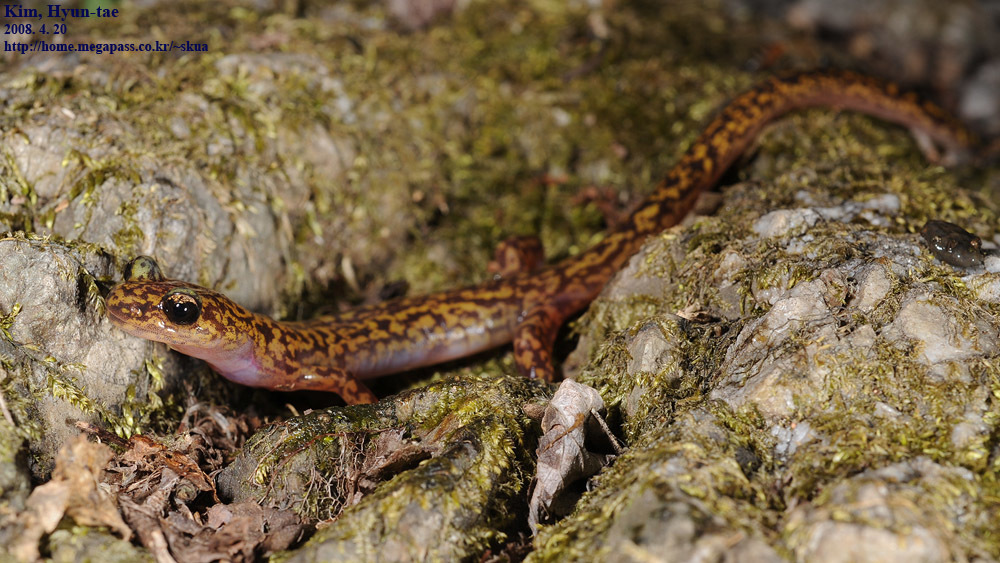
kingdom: Animalia
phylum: Chordata
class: Amphibia
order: Caudata
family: Hynobiidae
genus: Onychodactylus
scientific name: Onychodactylus koreanus
